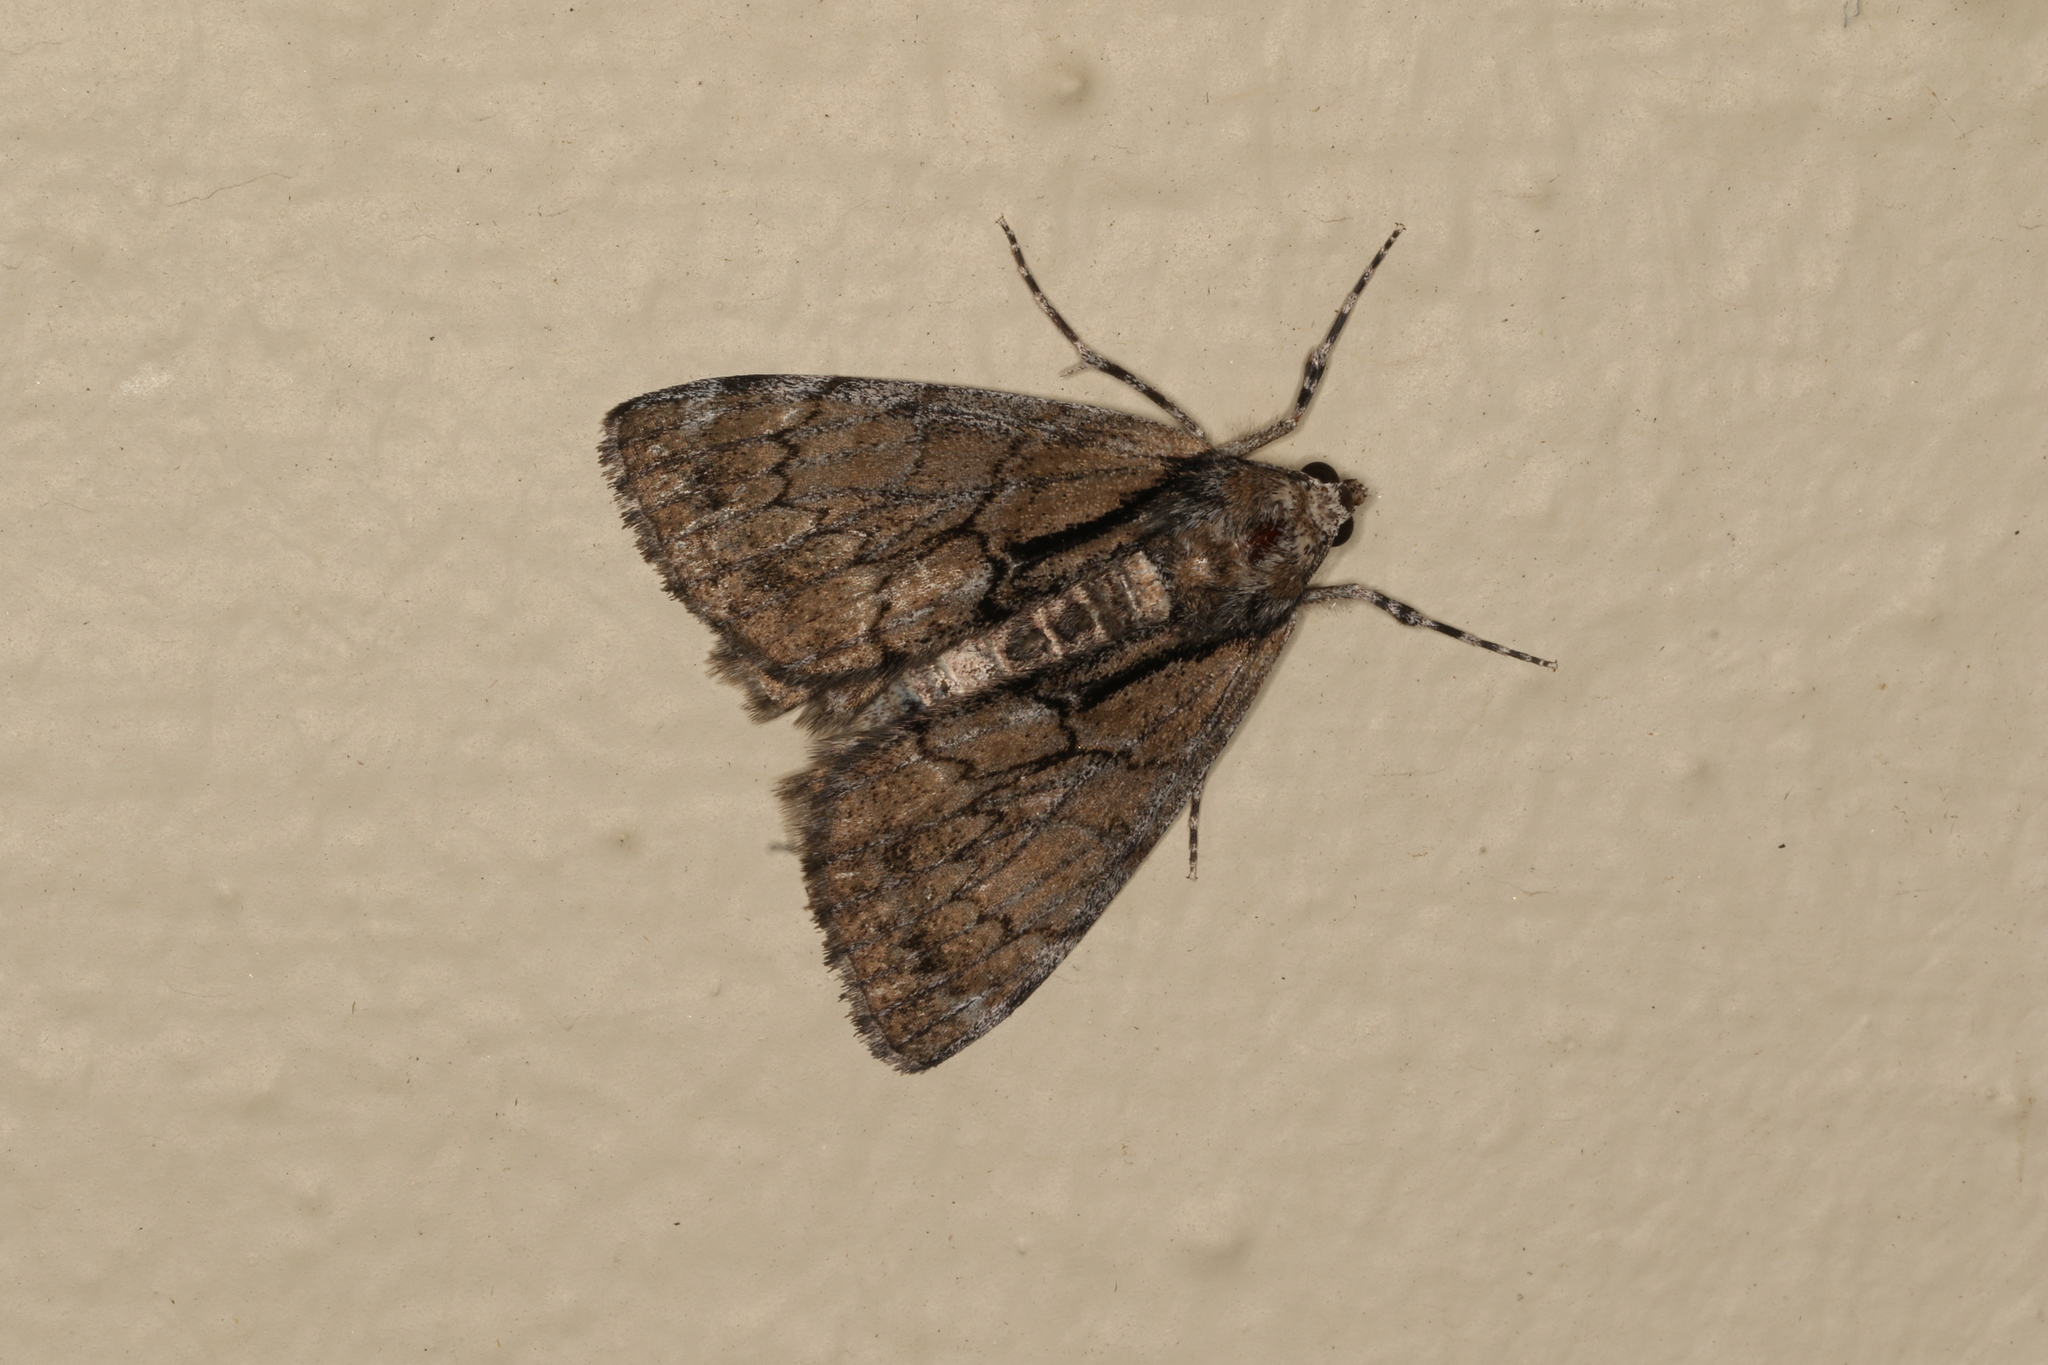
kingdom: Animalia
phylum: Arthropoda
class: Insecta
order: Lepidoptera
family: Geometridae
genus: Rhuma
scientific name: Rhuma argyraspis
